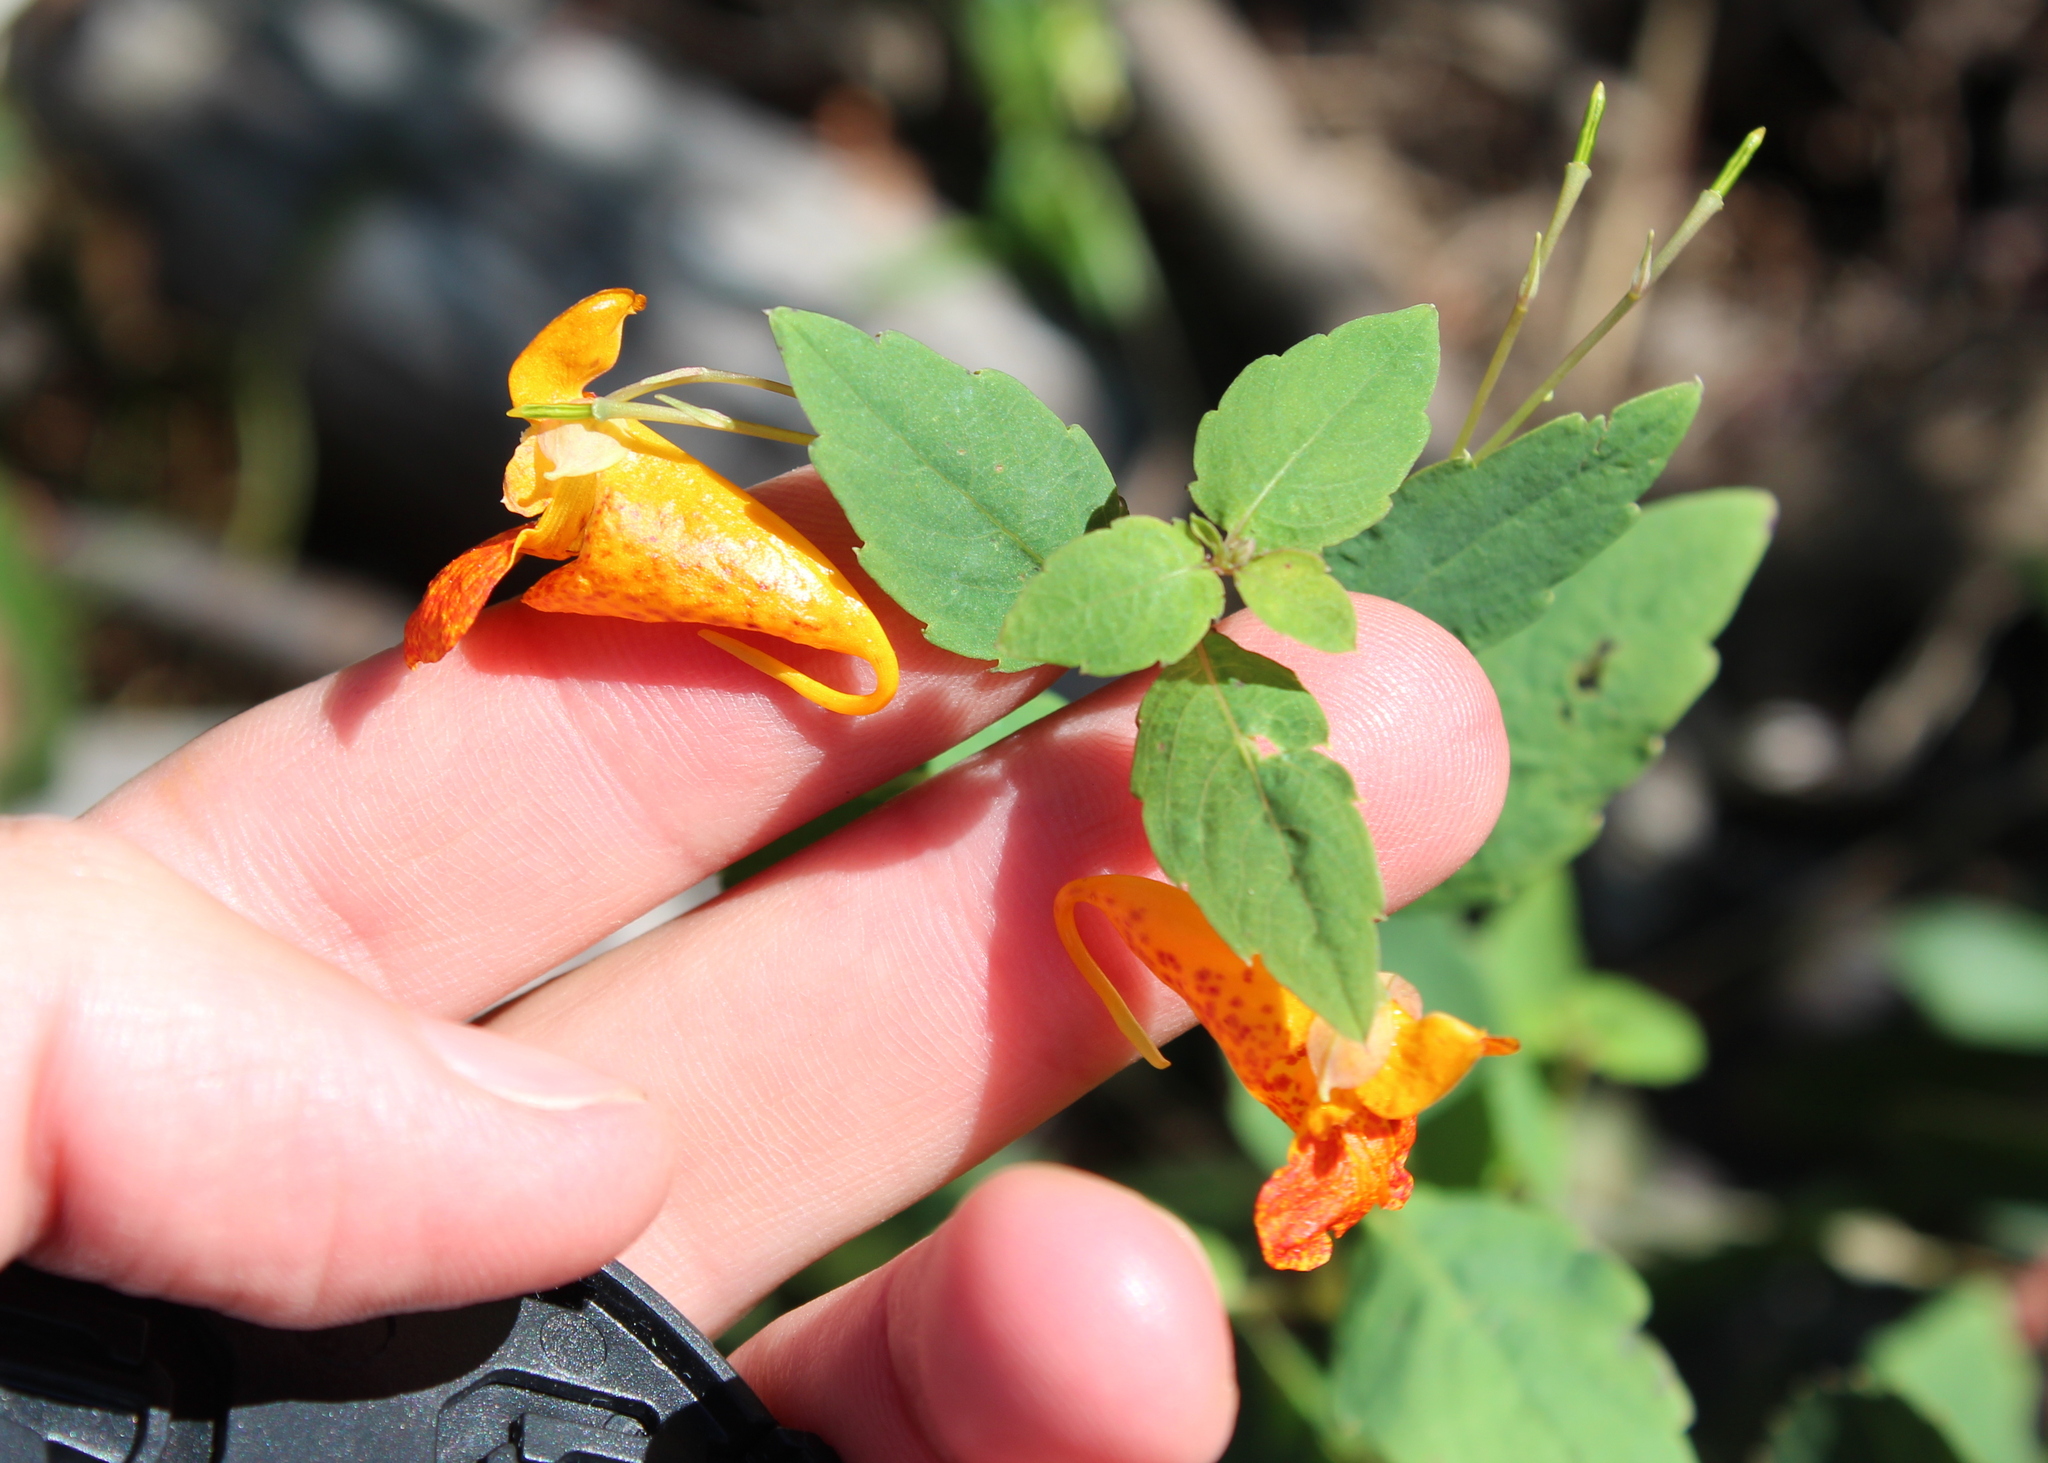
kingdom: Plantae
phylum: Tracheophyta
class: Magnoliopsida
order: Ericales
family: Balsaminaceae
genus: Impatiens
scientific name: Impatiens capensis
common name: Orange balsam
